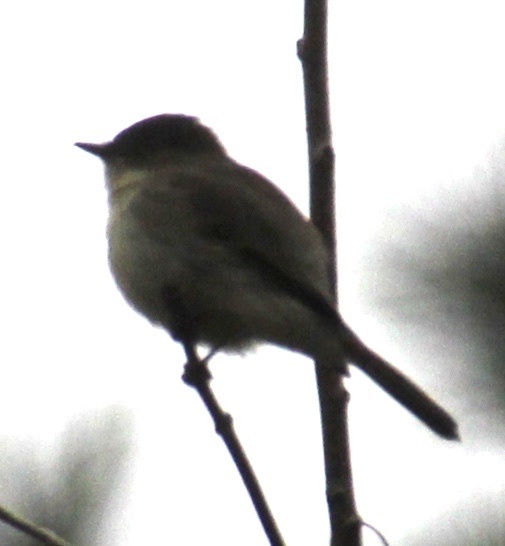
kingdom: Animalia
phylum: Chordata
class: Aves
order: Passeriformes
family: Tyrannidae
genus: Sayornis
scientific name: Sayornis phoebe
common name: Eastern phoebe
